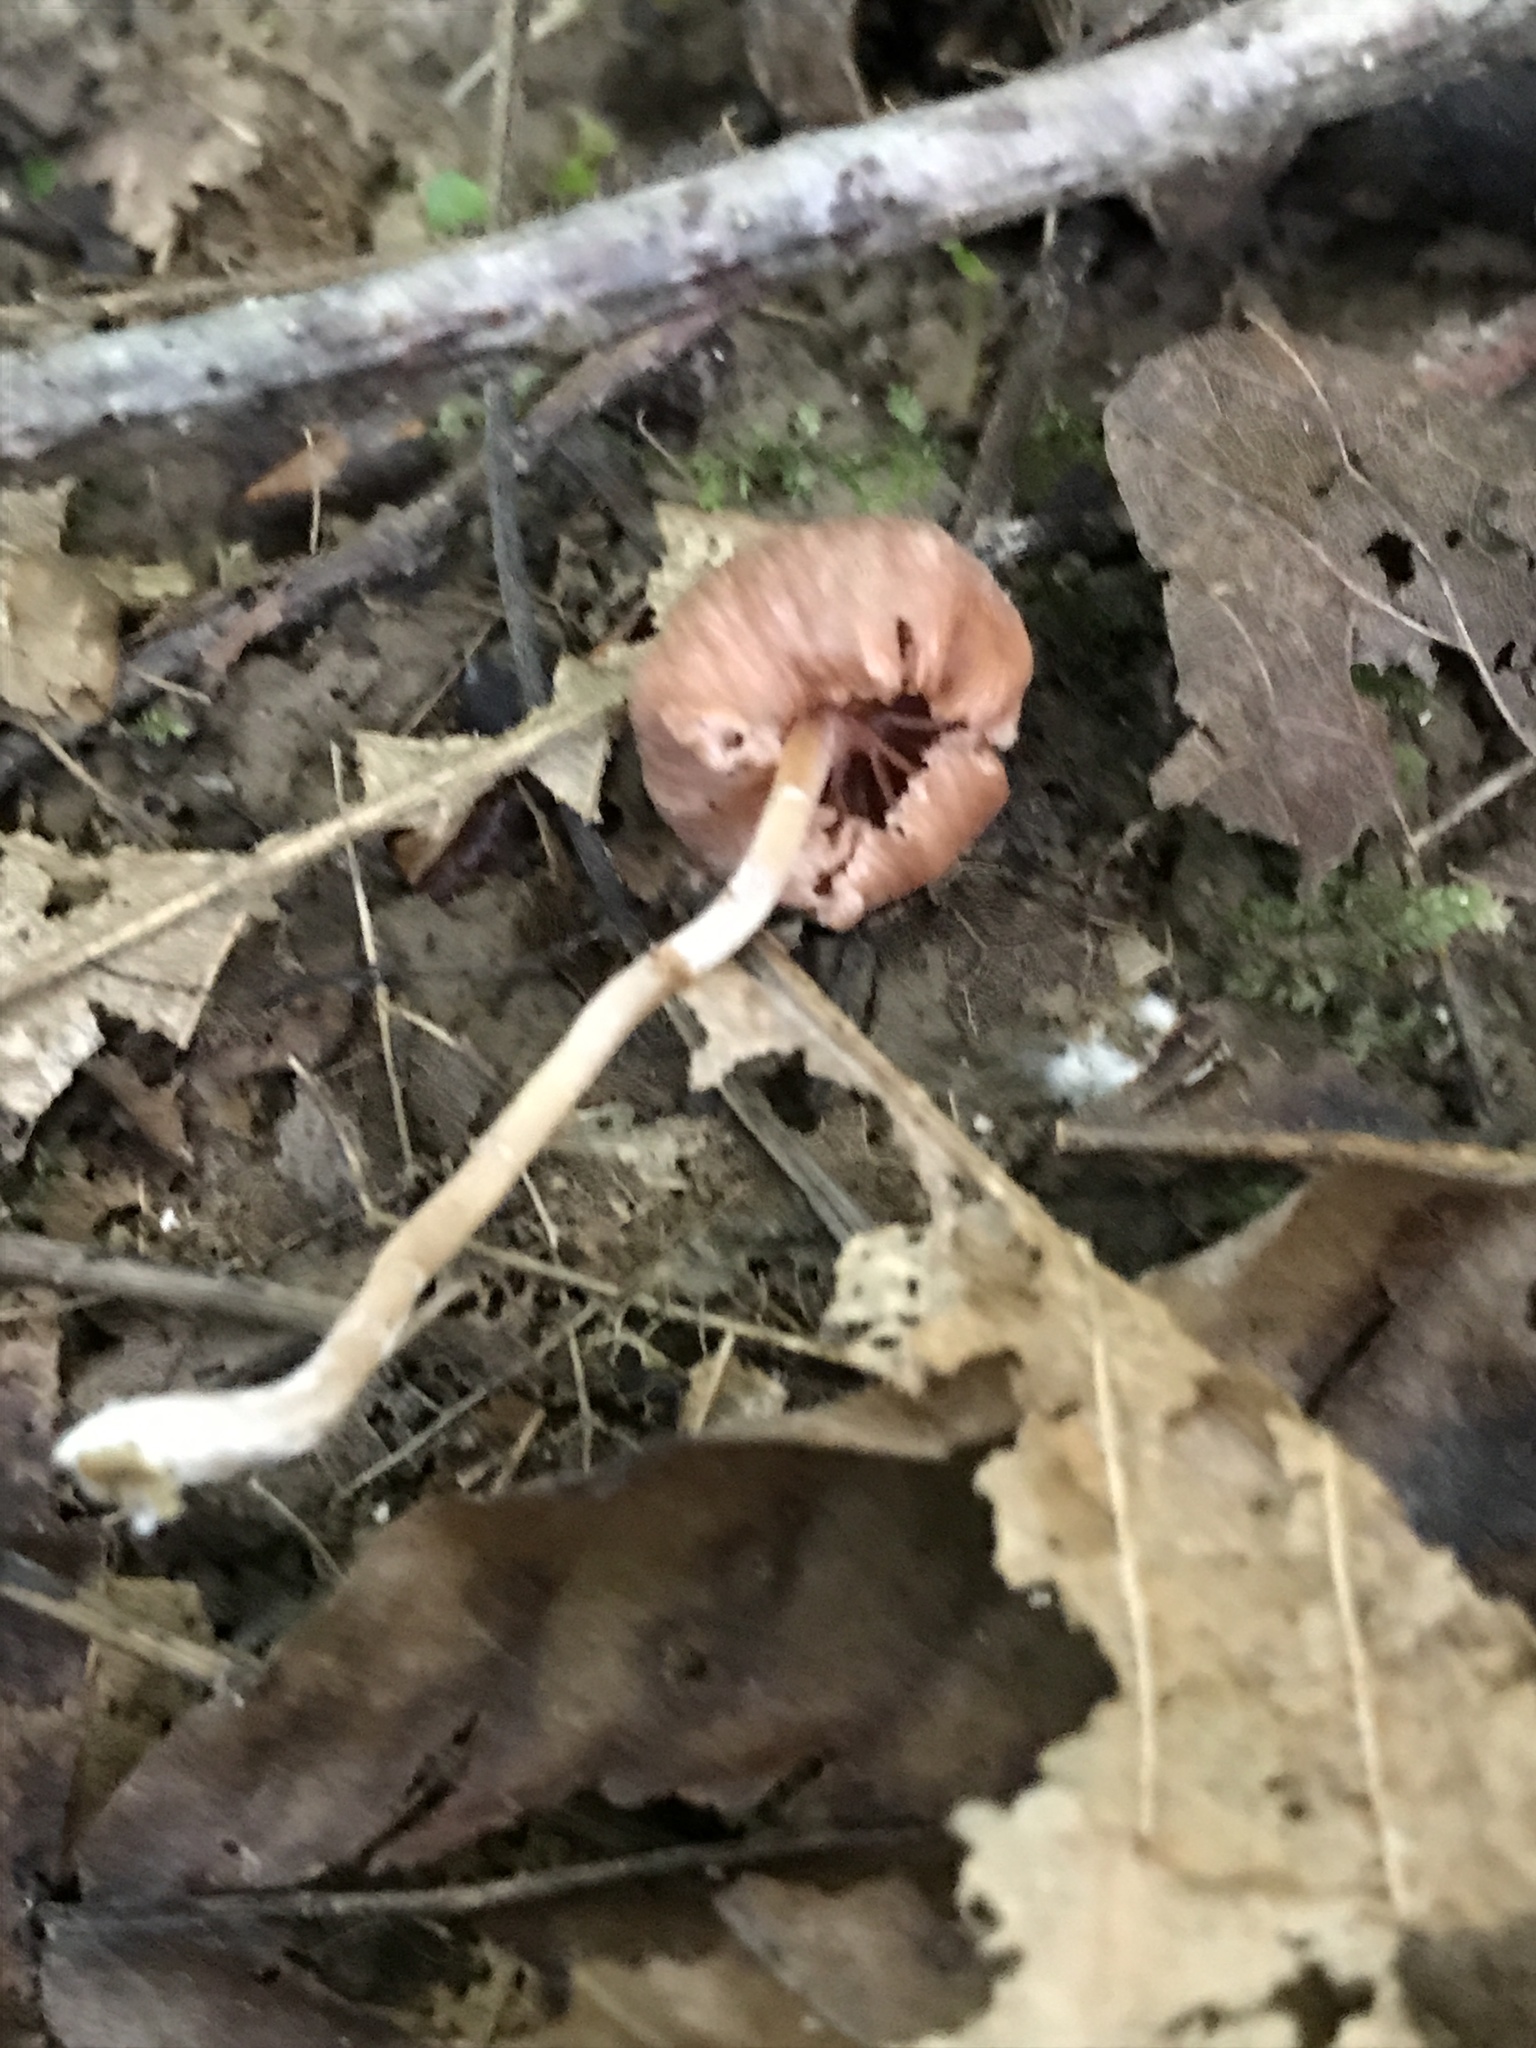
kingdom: Fungi
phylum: Basidiomycota
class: Agaricomycetes
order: Agaricales
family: Hydnangiaceae
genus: Laccaria
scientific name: Laccaria laccata
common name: Deceiver
